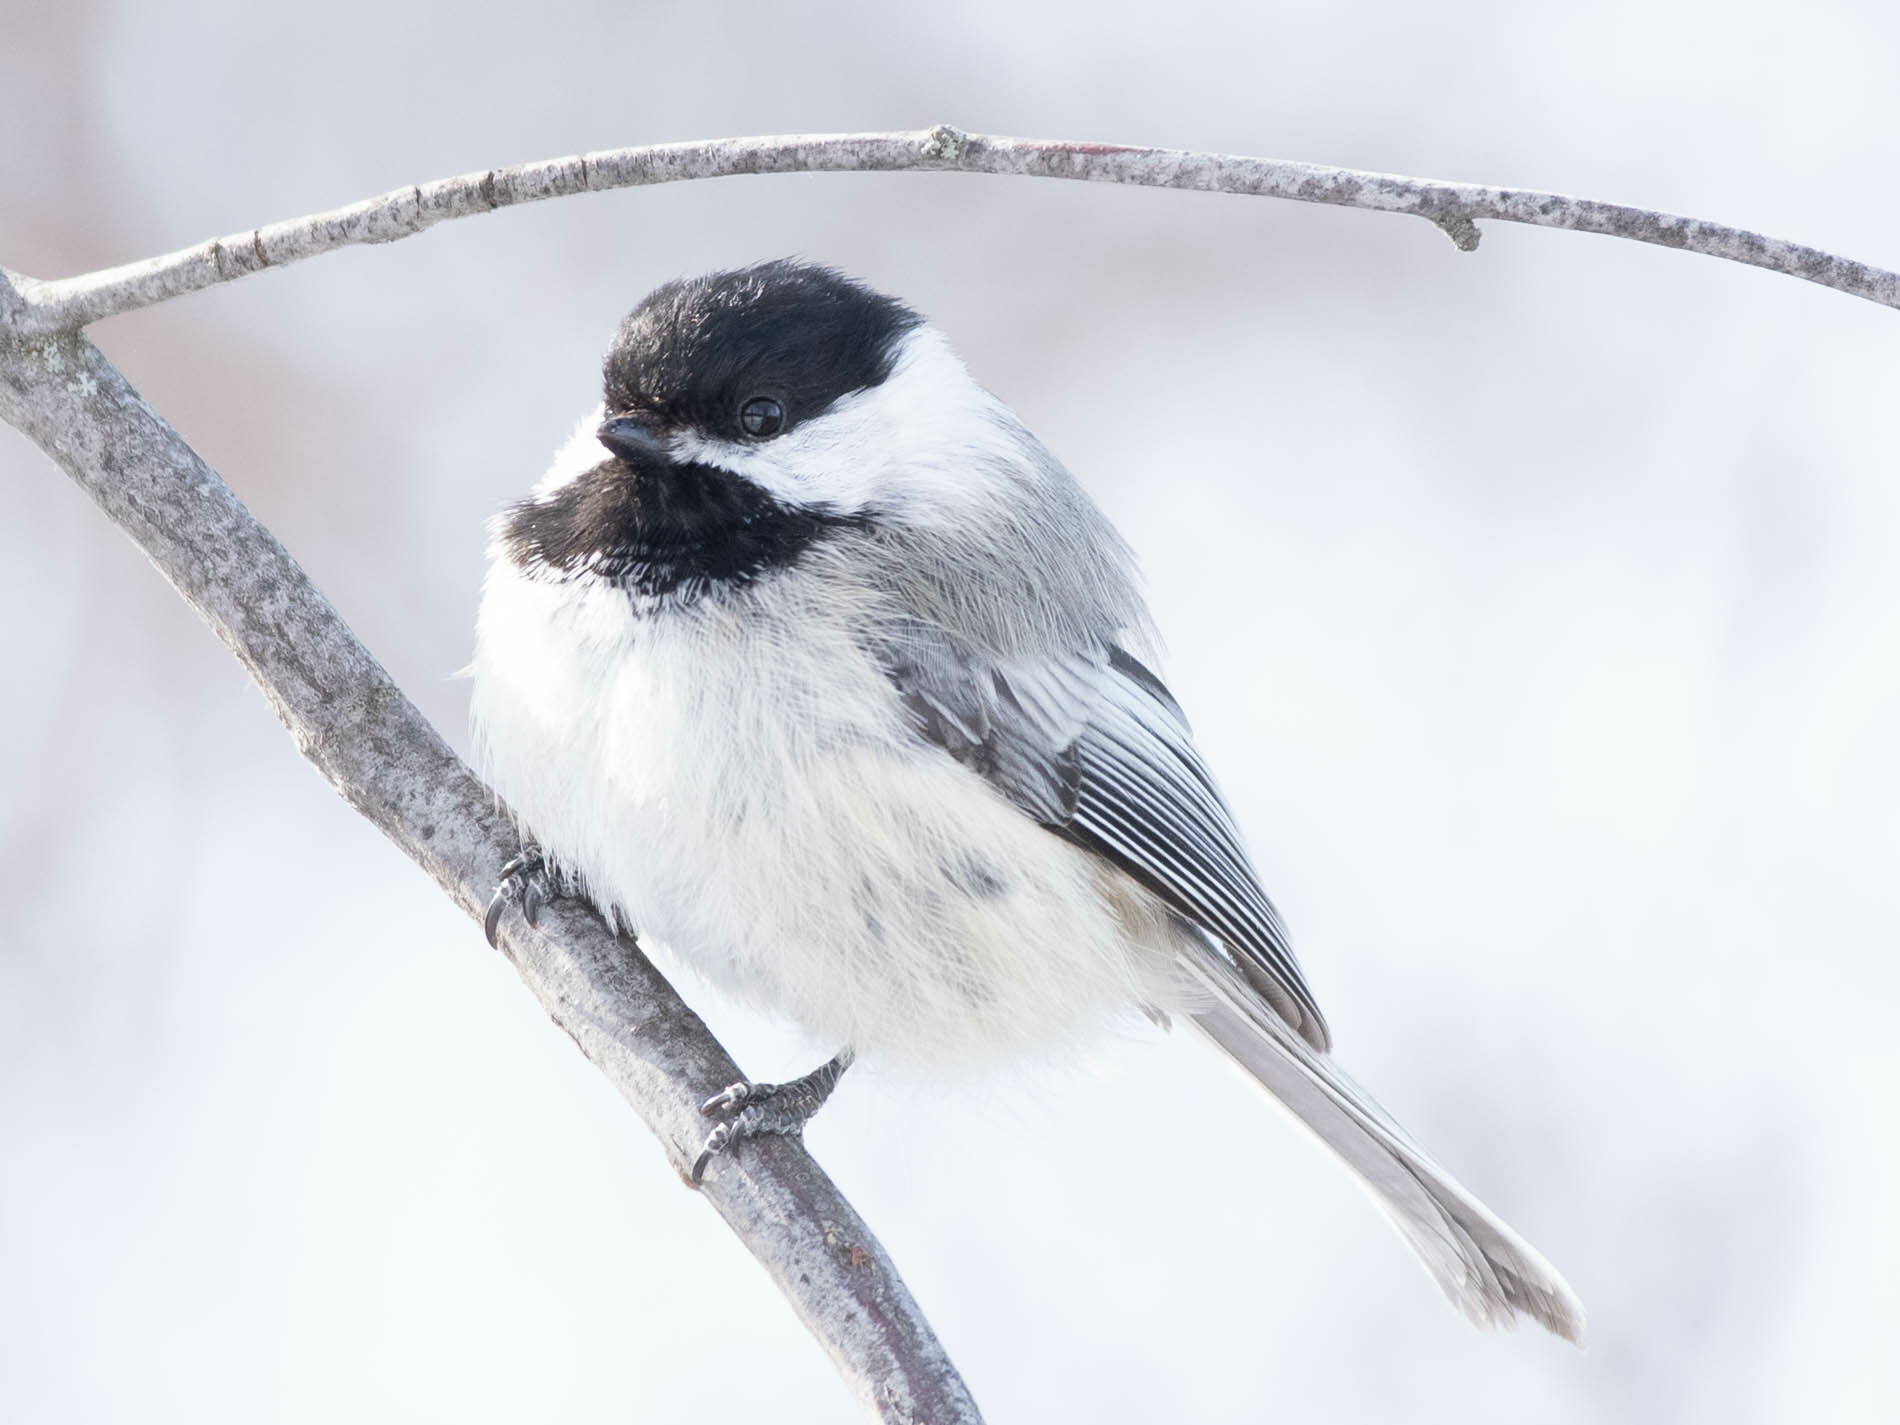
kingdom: Animalia
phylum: Chordata
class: Aves
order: Passeriformes
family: Paridae
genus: Poecile
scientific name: Poecile atricapillus
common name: Black-capped chickadee
